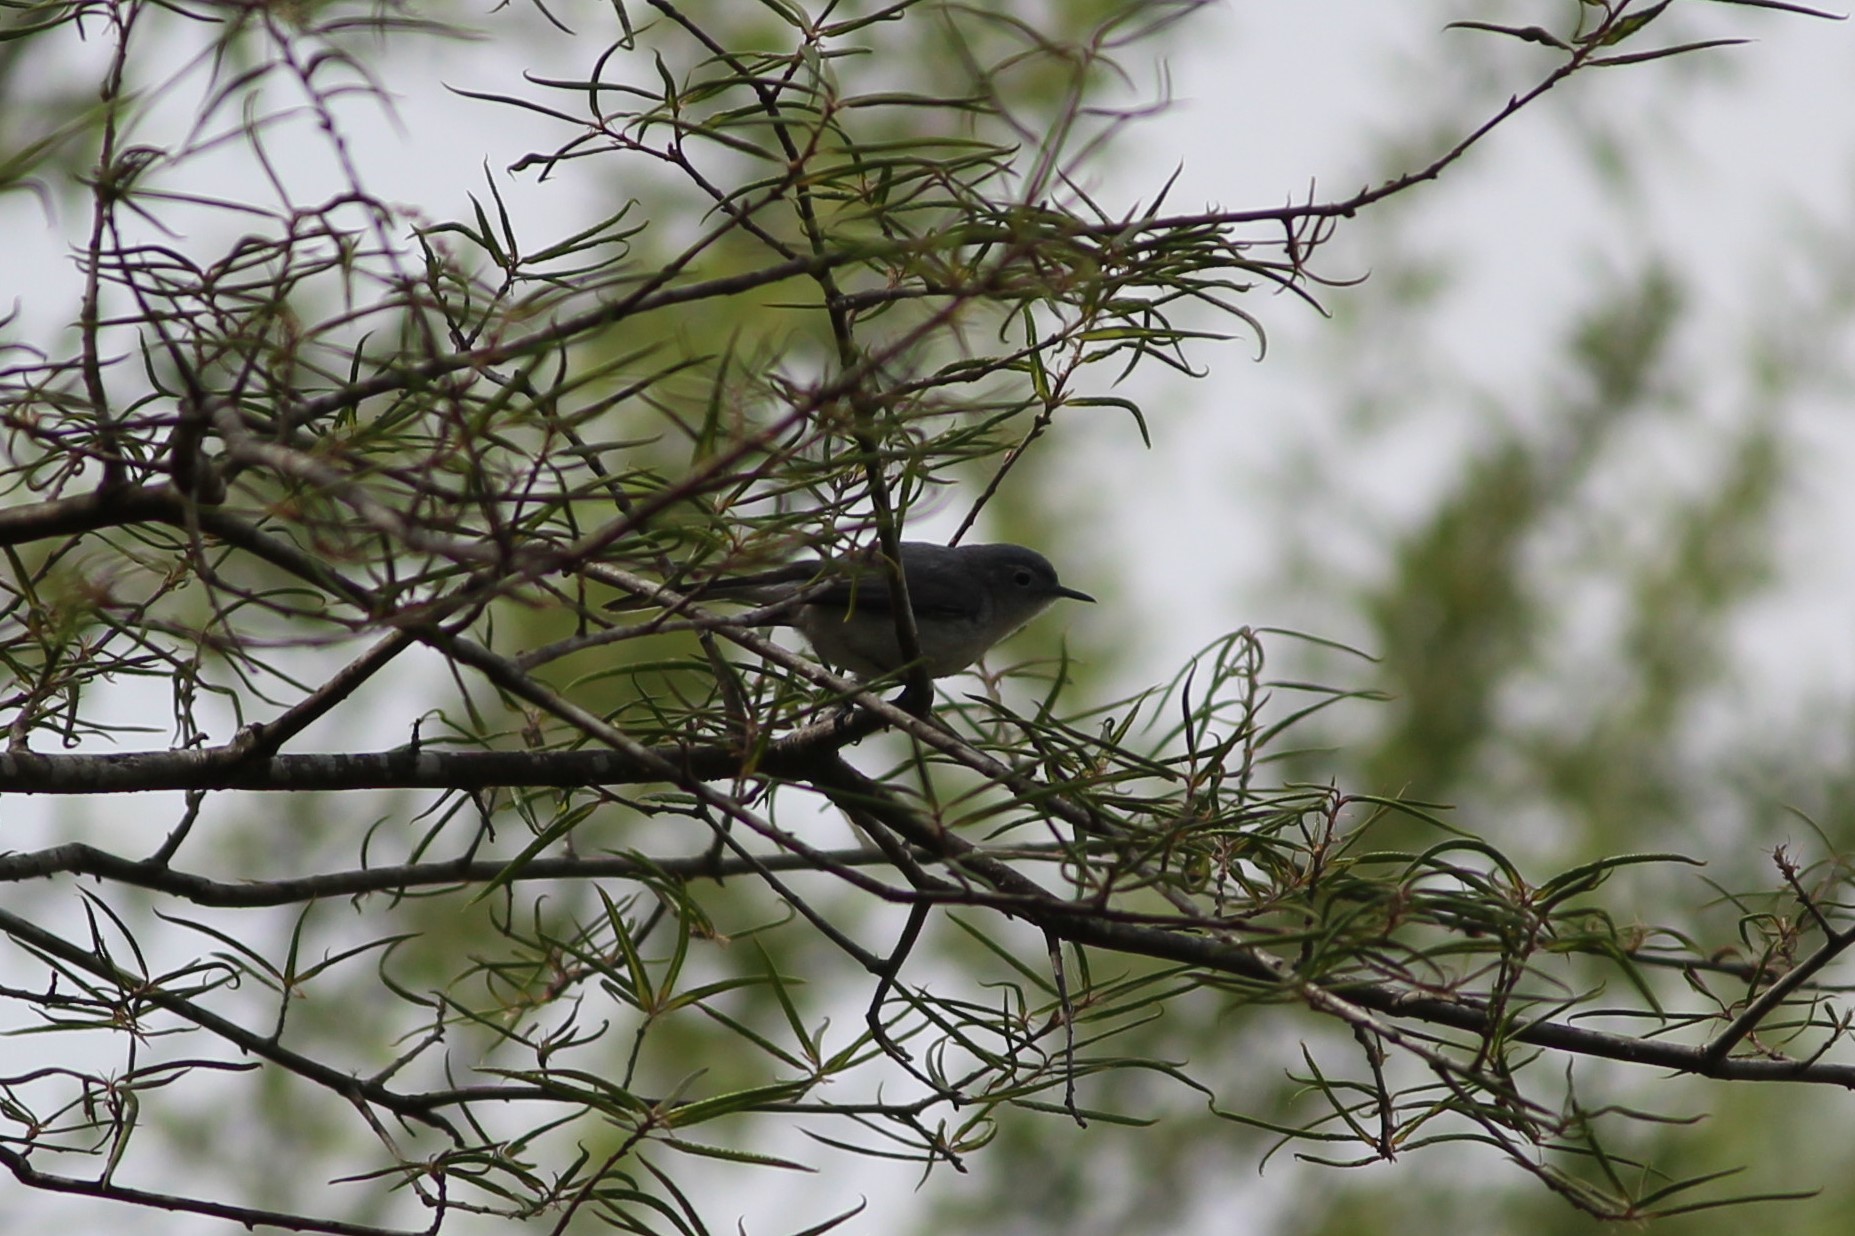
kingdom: Animalia
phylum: Chordata
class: Aves
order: Passeriformes
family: Polioptilidae
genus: Polioptila
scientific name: Polioptila caerulea
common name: Blue-gray gnatcatcher
